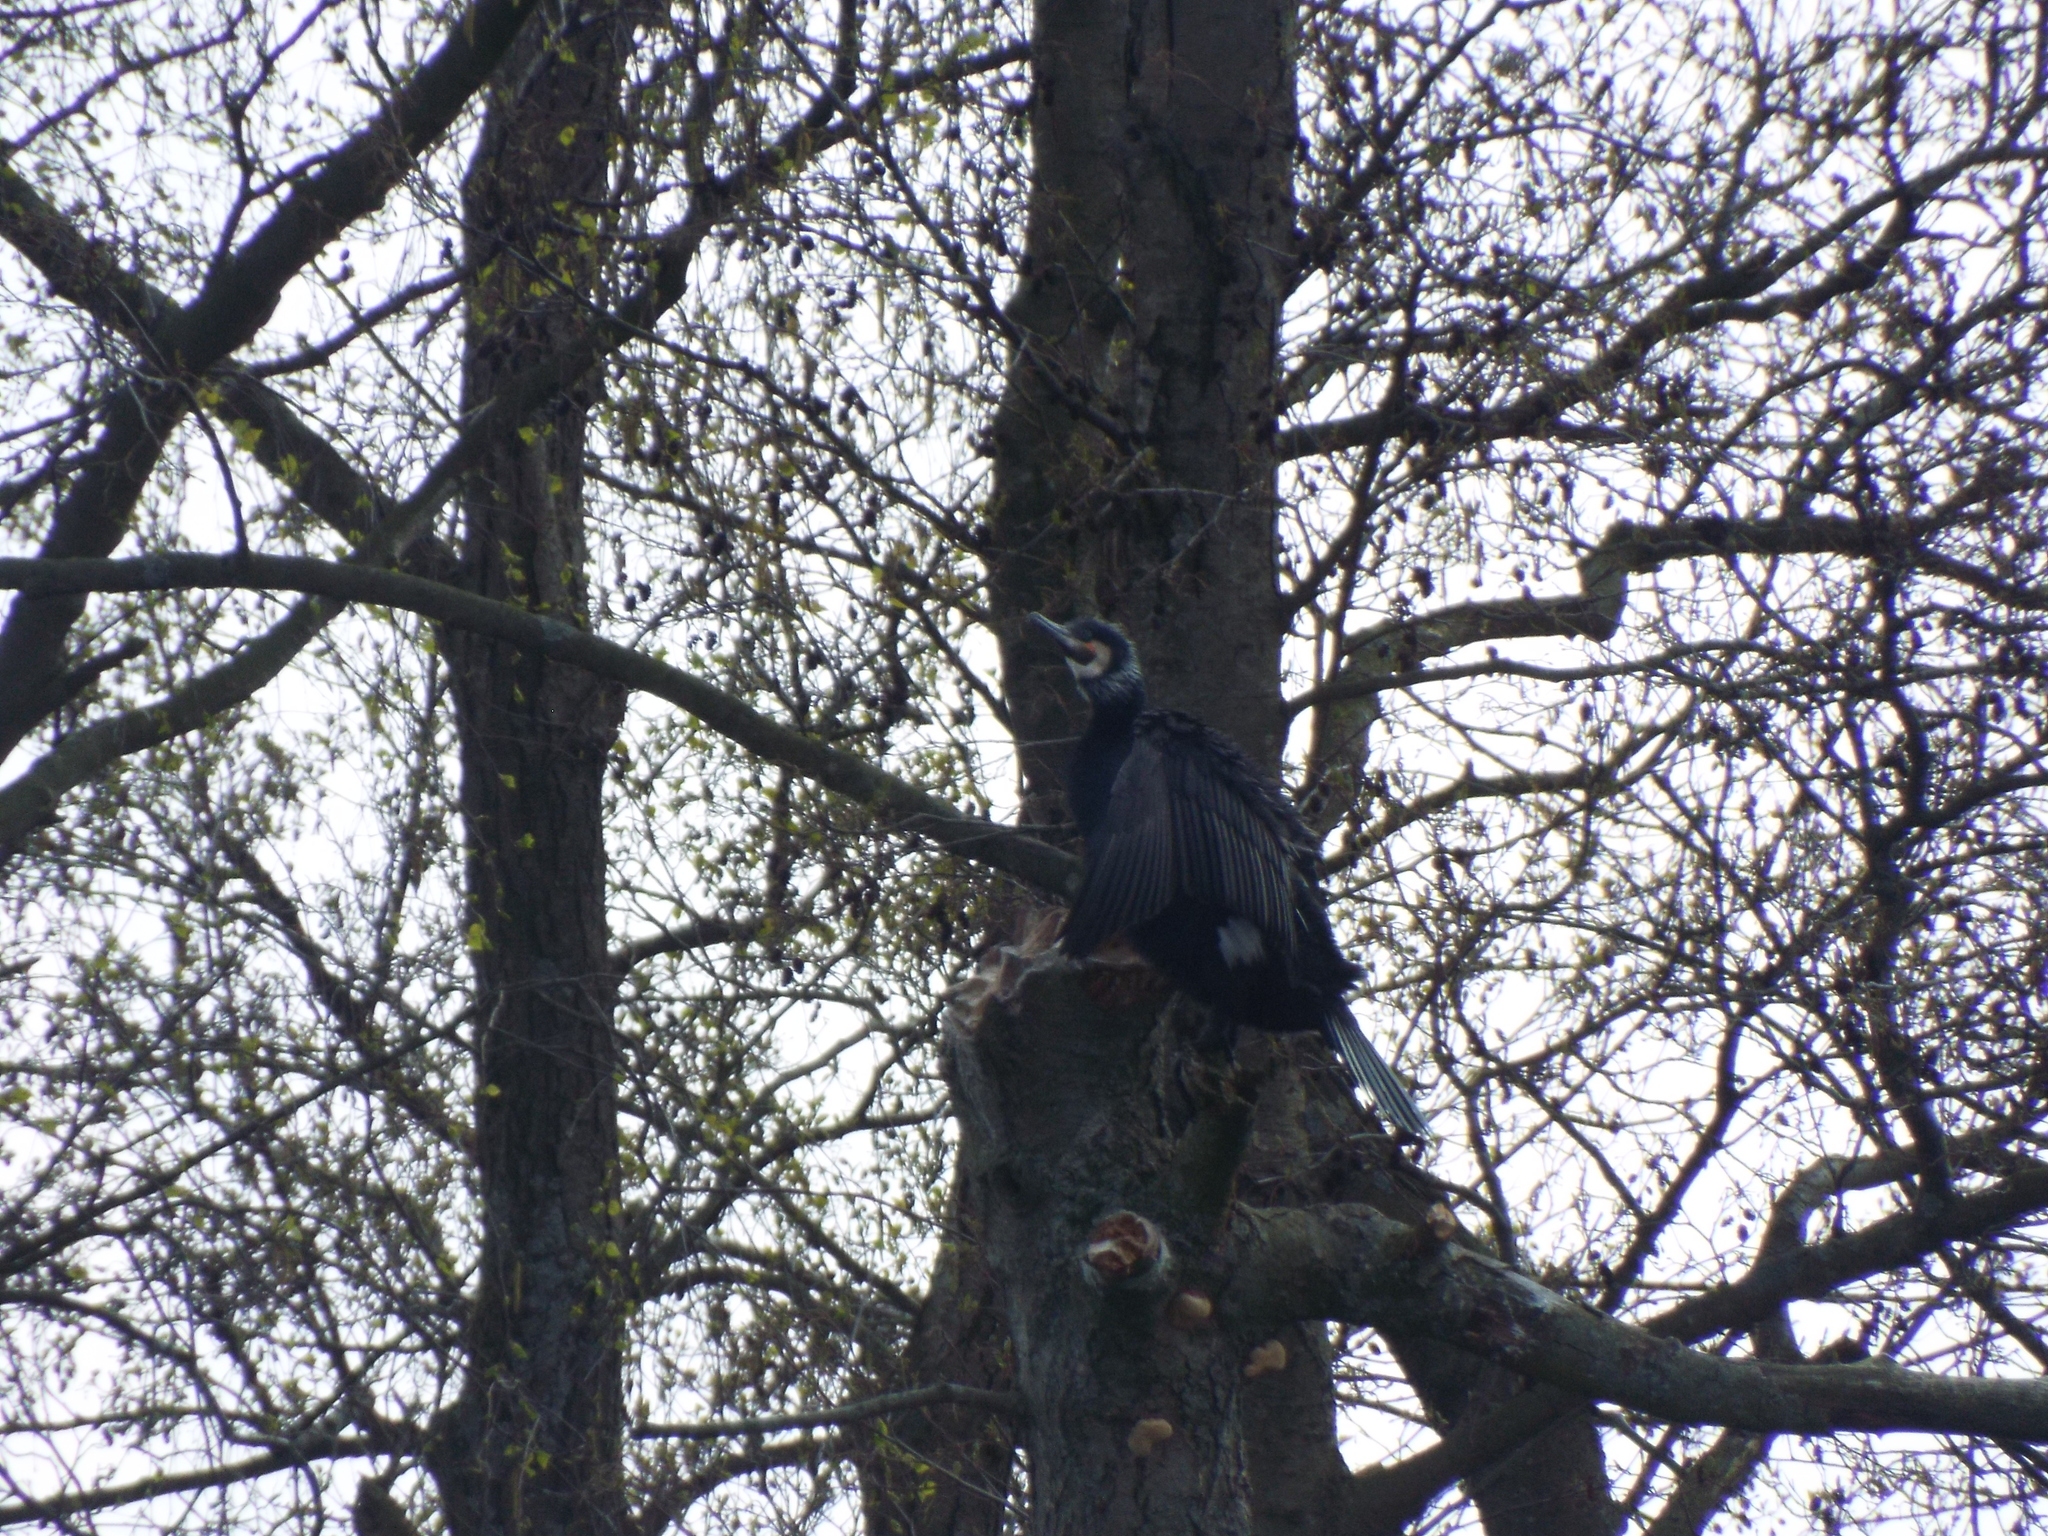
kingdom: Animalia
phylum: Chordata
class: Aves
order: Suliformes
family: Phalacrocoracidae
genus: Phalacrocorax
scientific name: Phalacrocorax carbo
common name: Great cormorant
